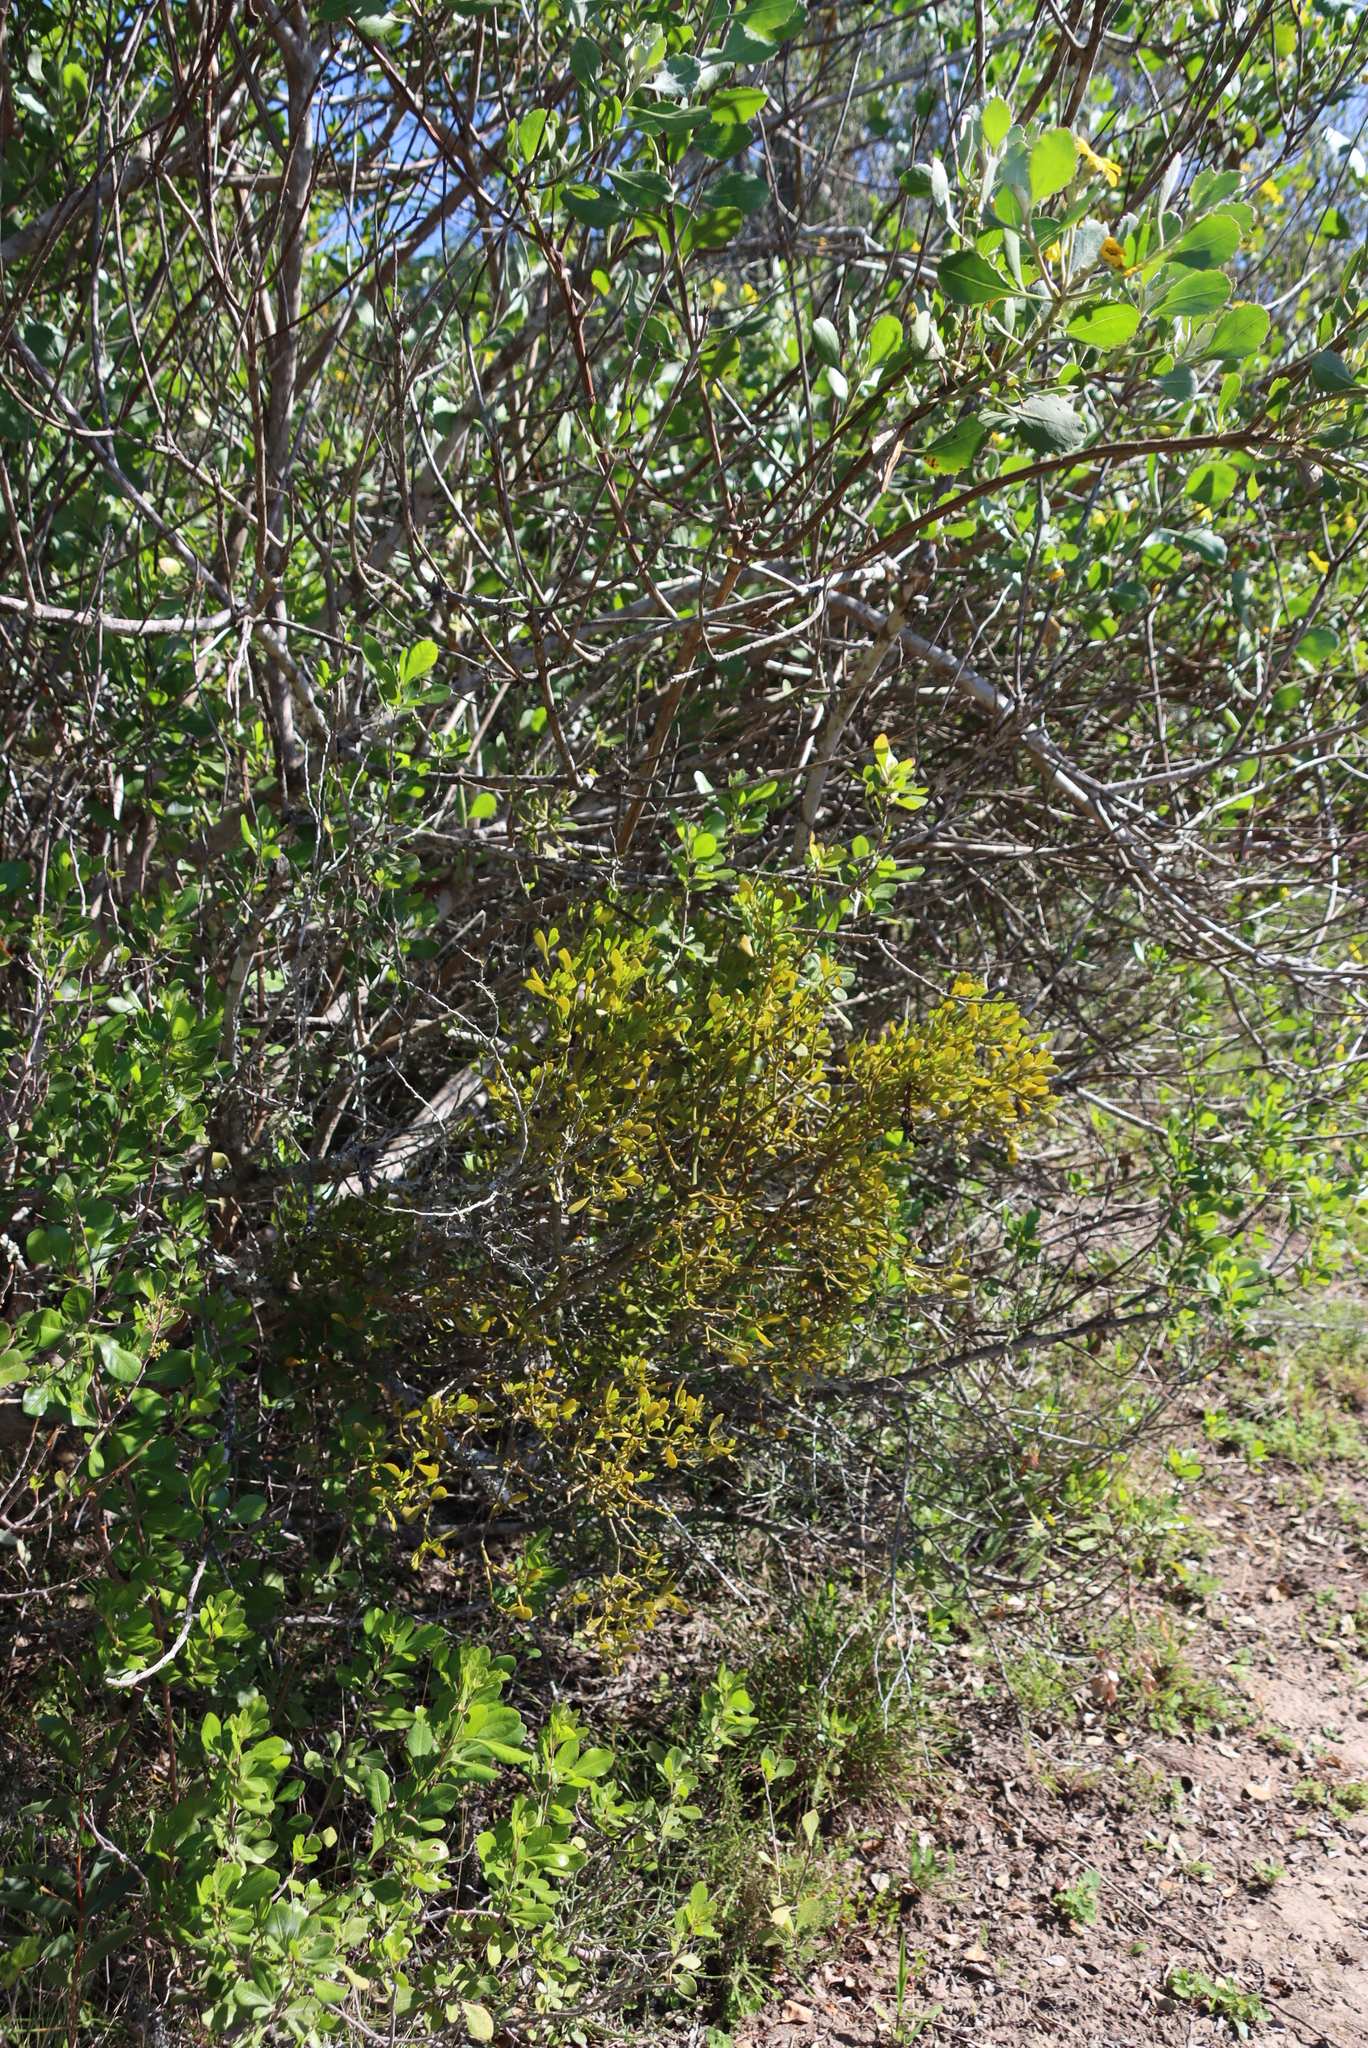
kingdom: Plantae
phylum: Tracheophyta
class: Magnoliopsida
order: Santalales
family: Viscaceae
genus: Viscum
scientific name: Viscum rotundifolium
